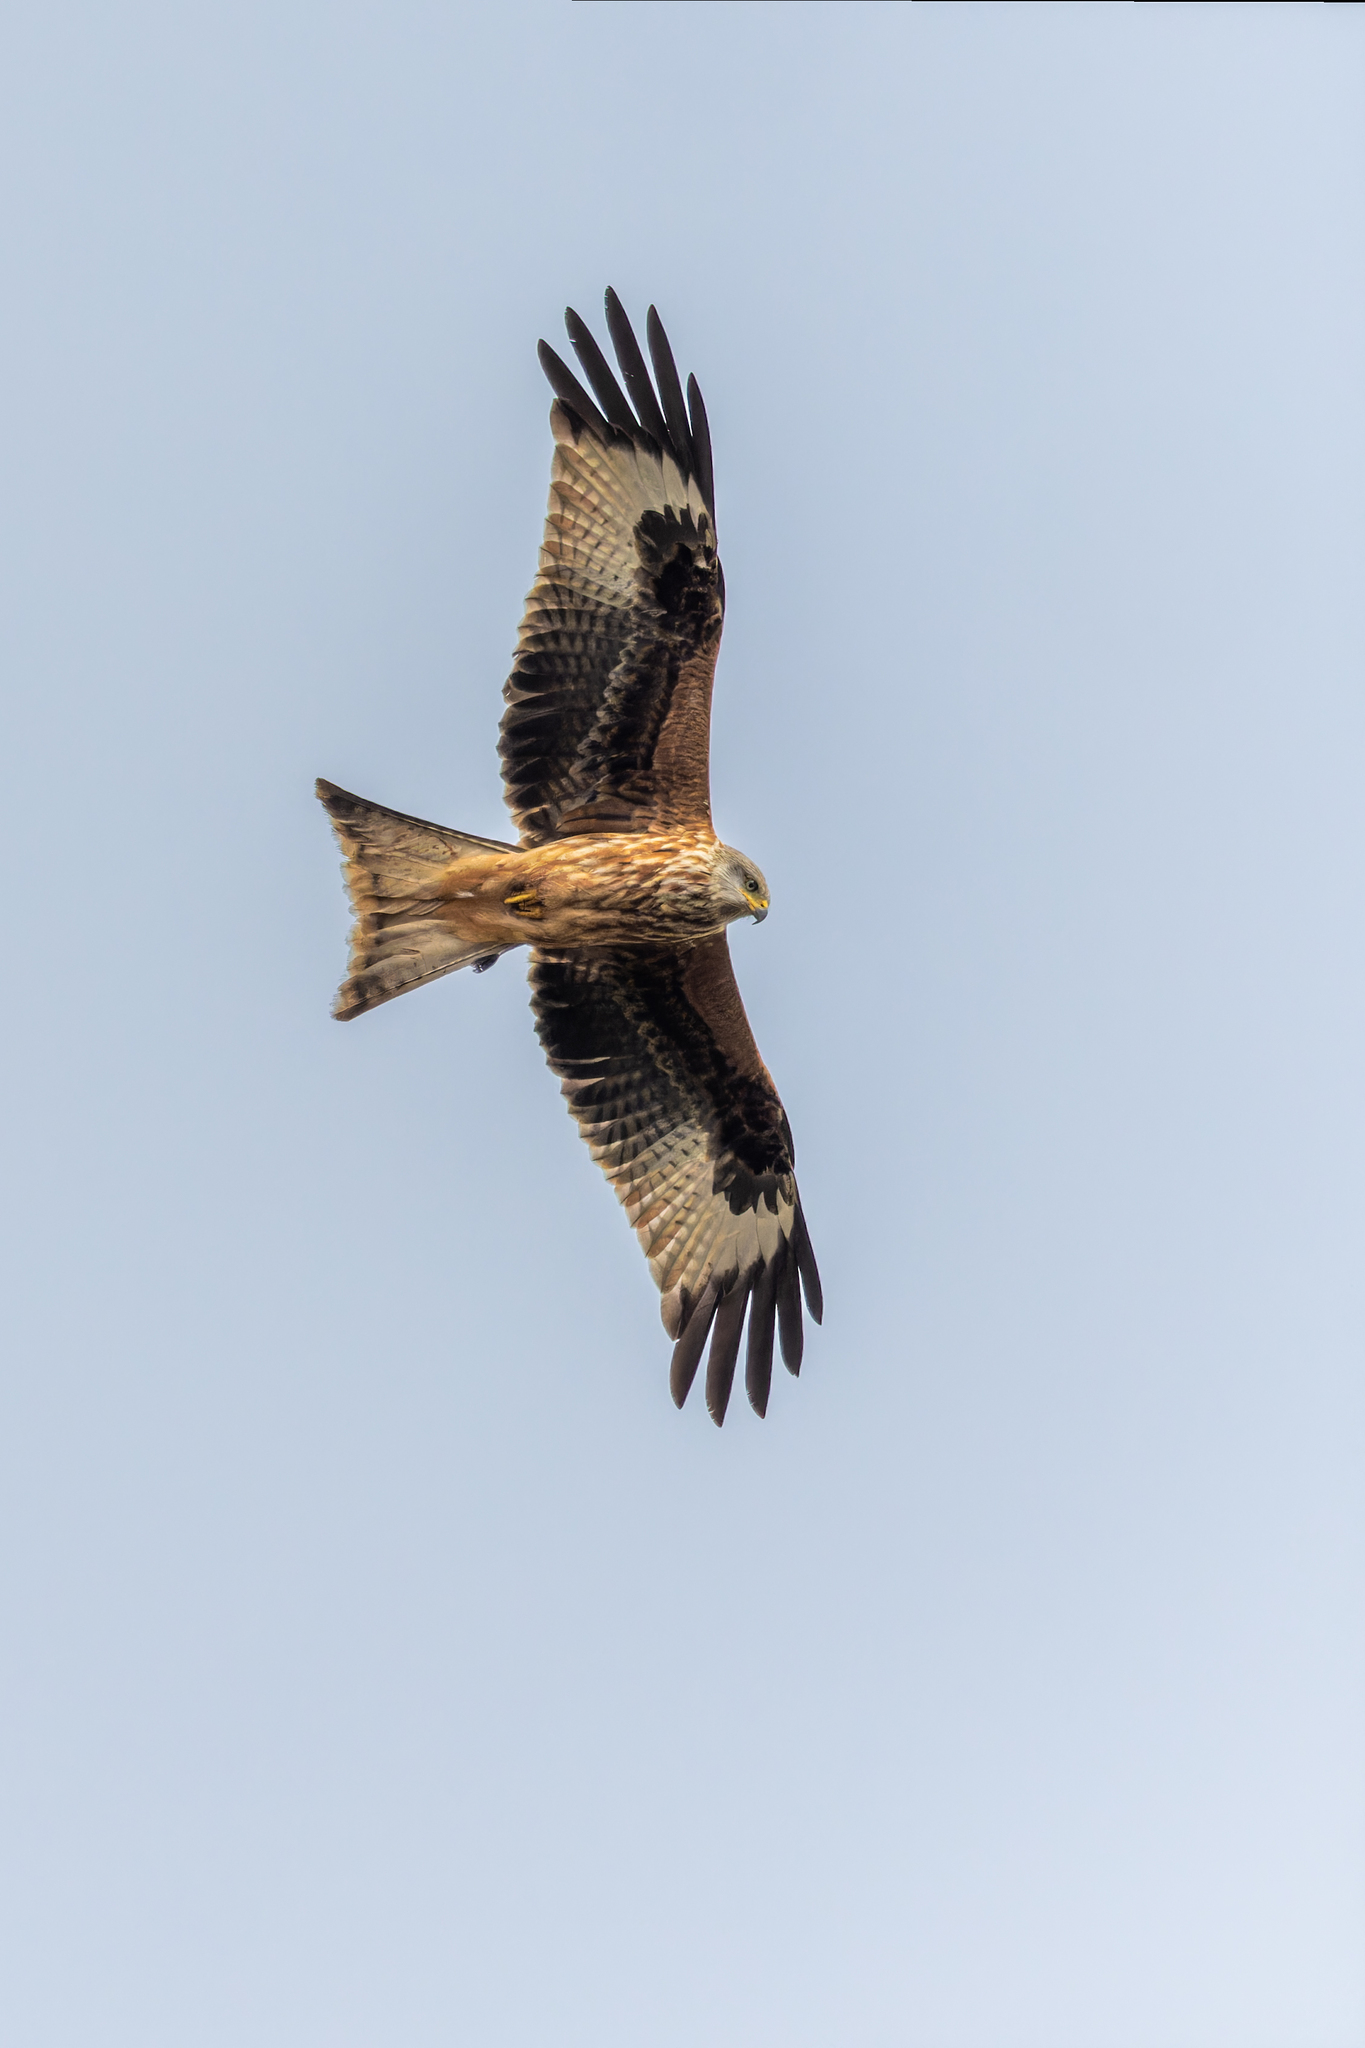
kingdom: Animalia
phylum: Chordata
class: Aves
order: Accipitriformes
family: Accipitridae
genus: Milvus
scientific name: Milvus milvus
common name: Red kite
